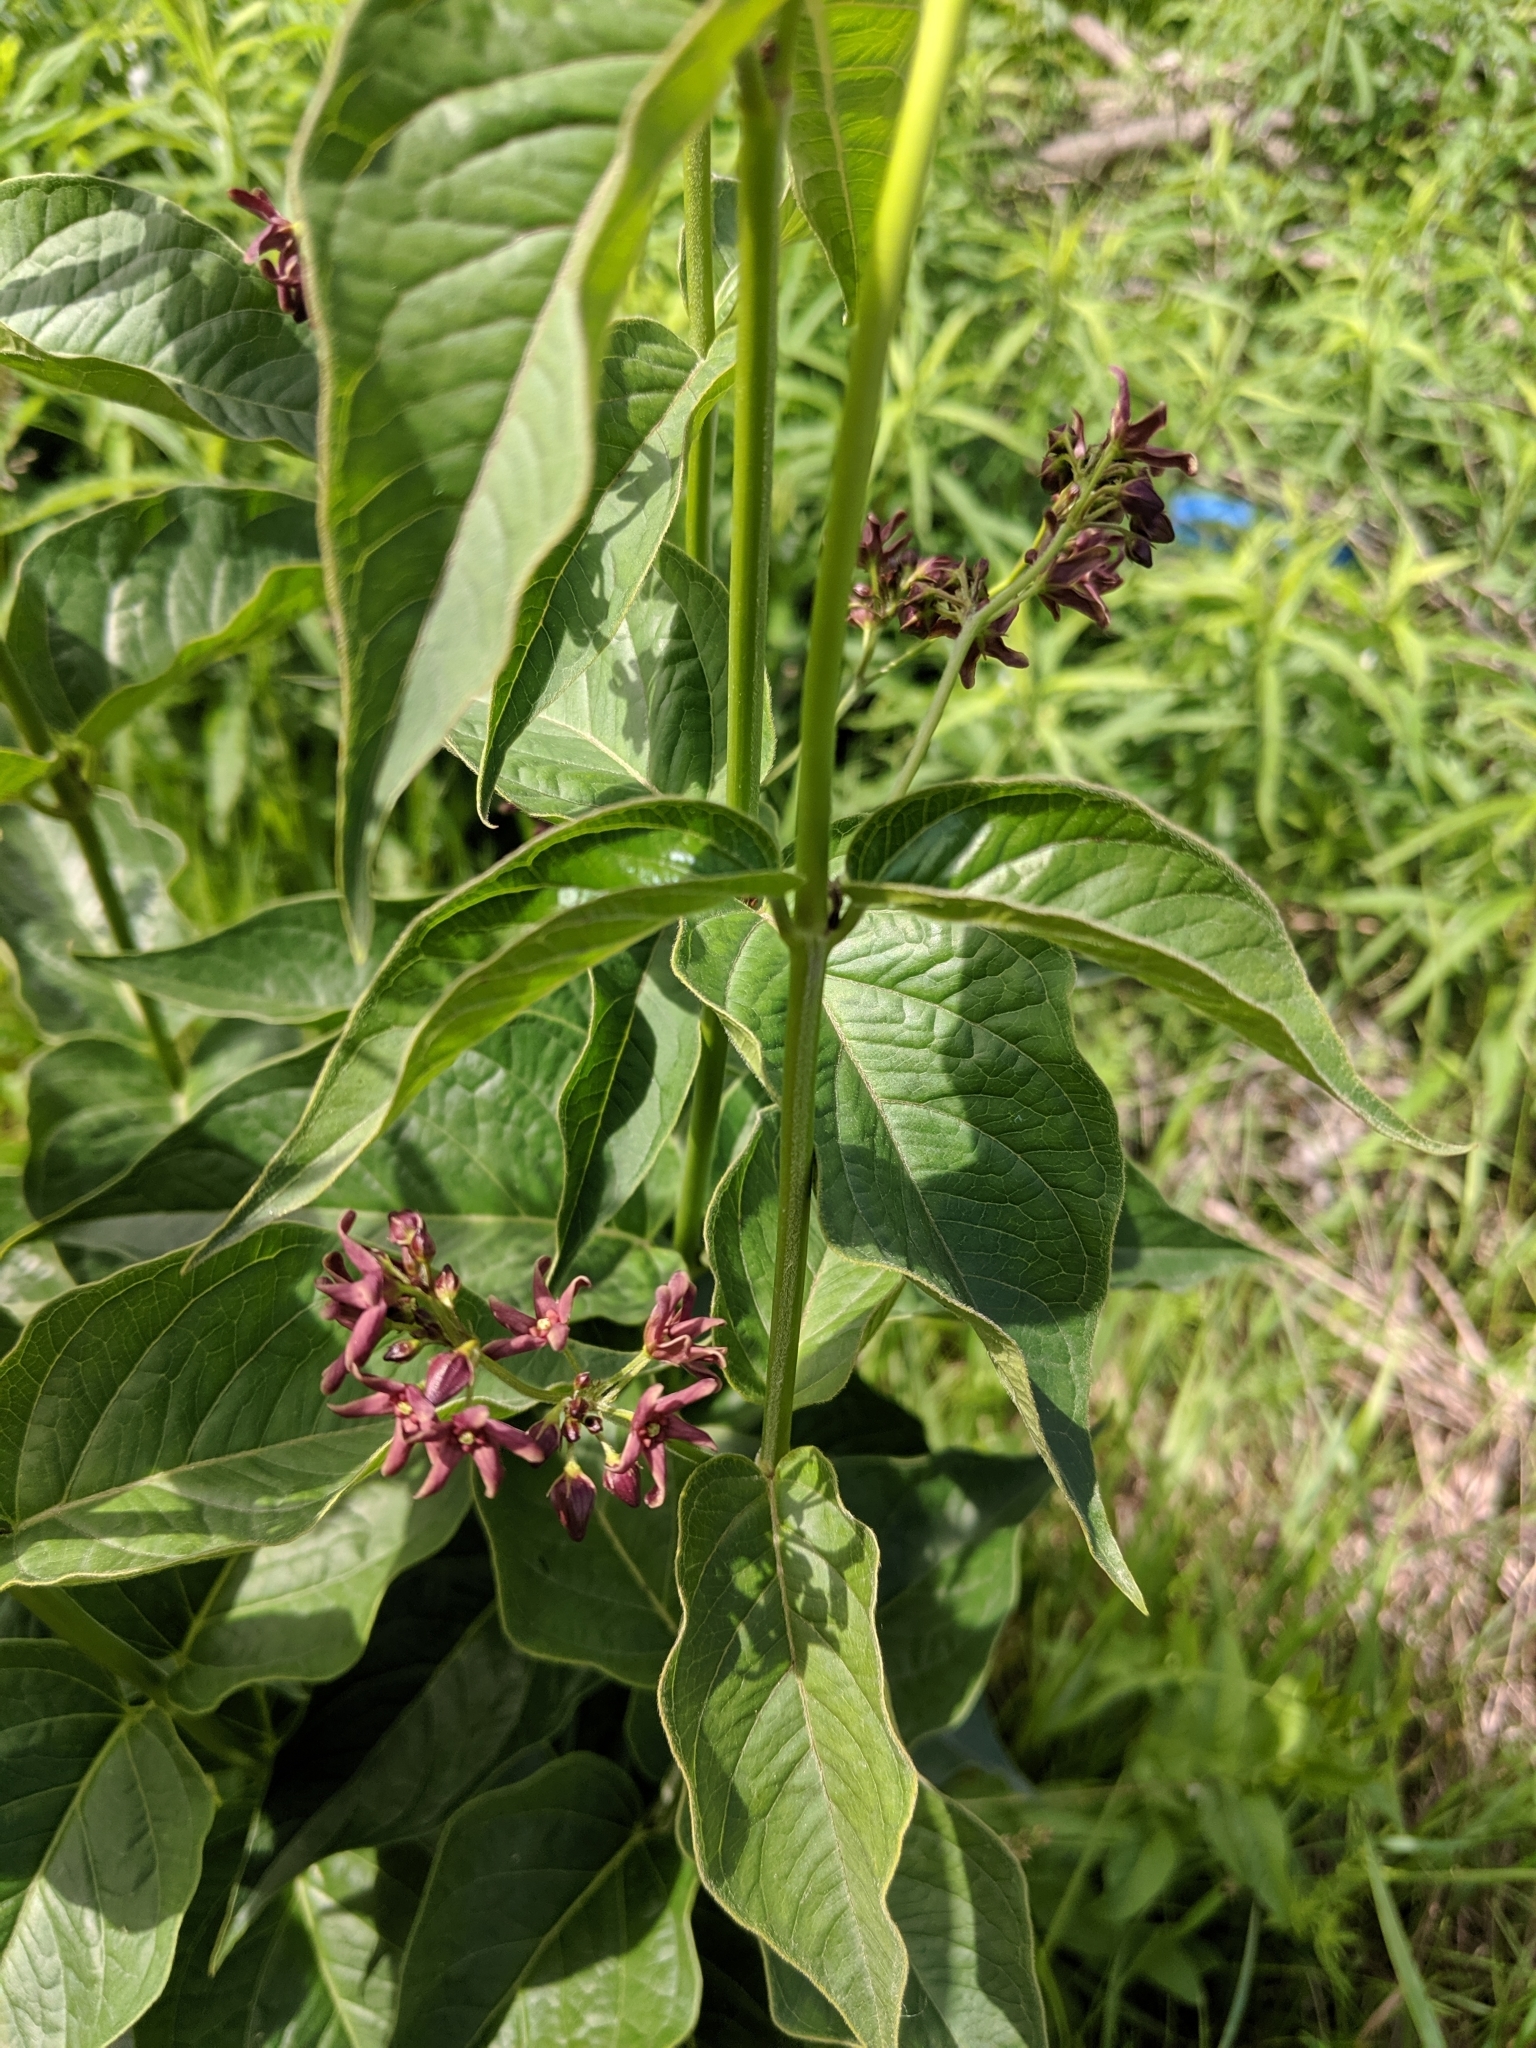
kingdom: Plantae
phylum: Tracheophyta
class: Magnoliopsida
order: Gentianales
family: Apocynaceae
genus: Vincetoxicum
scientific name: Vincetoxicum rossicum
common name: Dog-strangling vine
